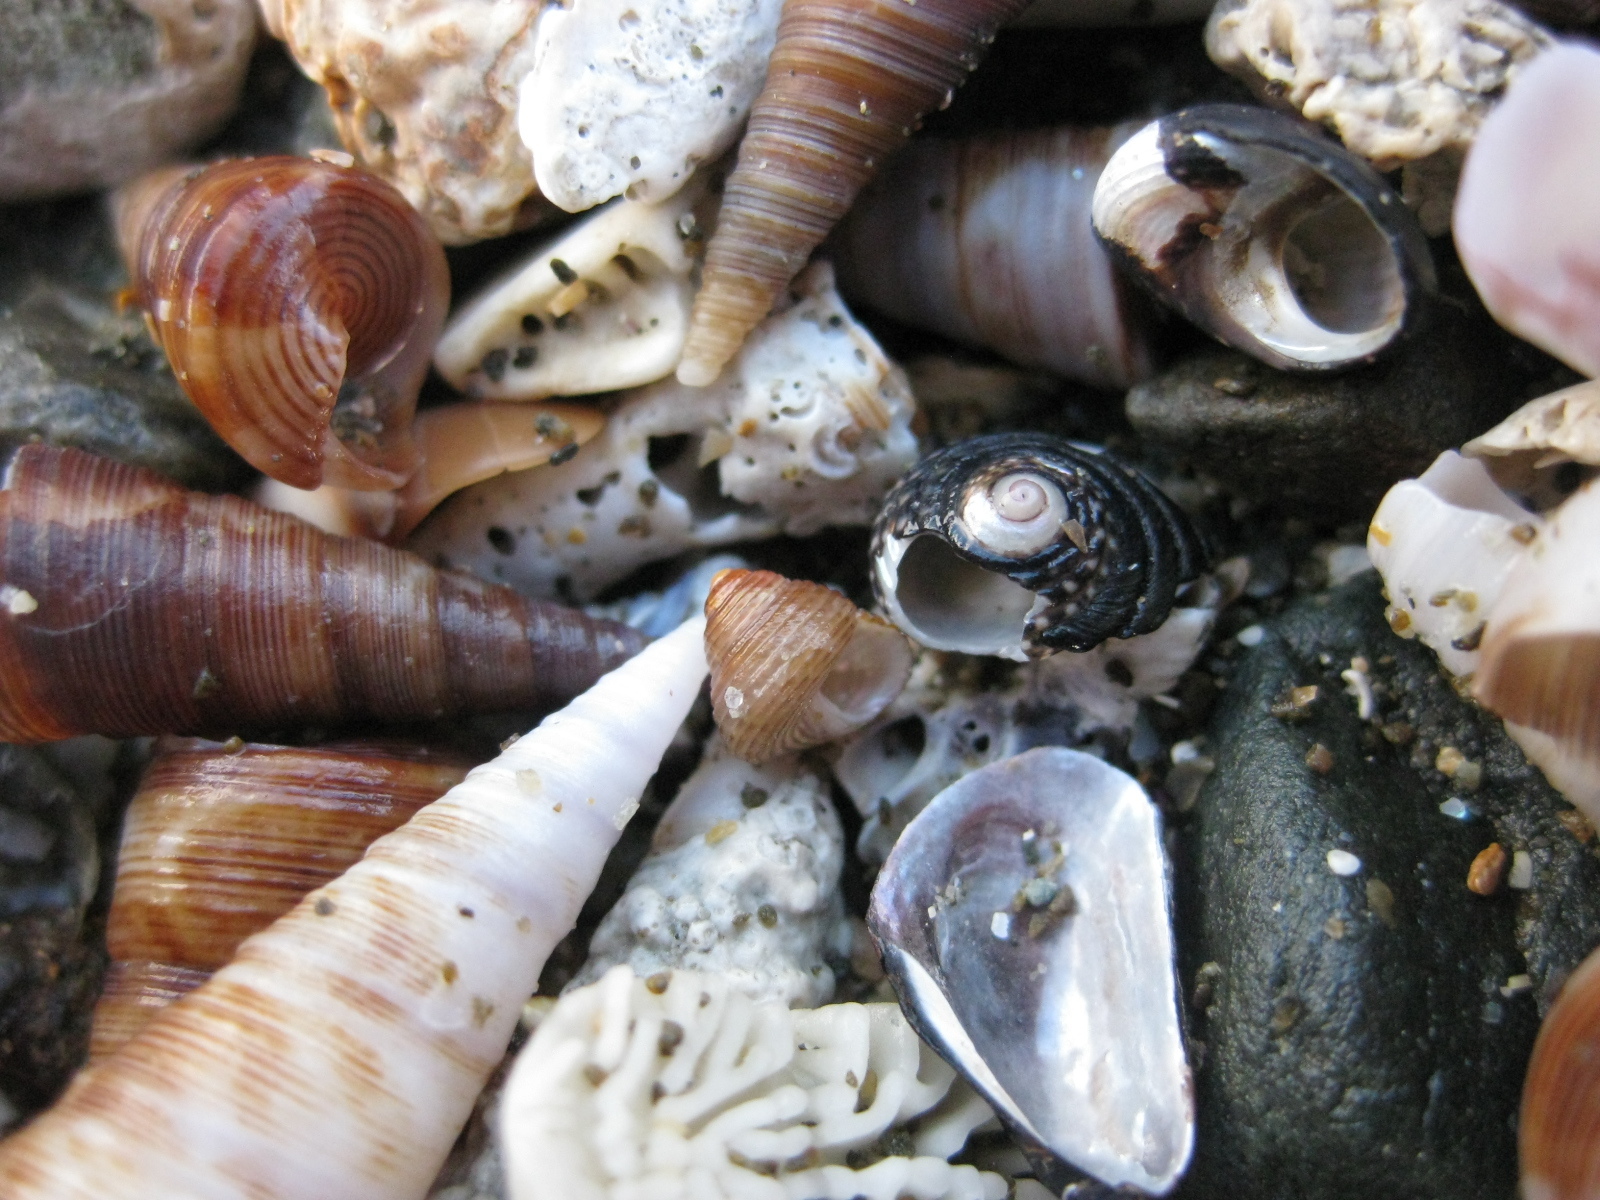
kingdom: Animalia
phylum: Mollusca
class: Gastropoda
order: Trochida
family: Trochidae
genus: Micrelenchus
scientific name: Micrelenchus tenebrosus
